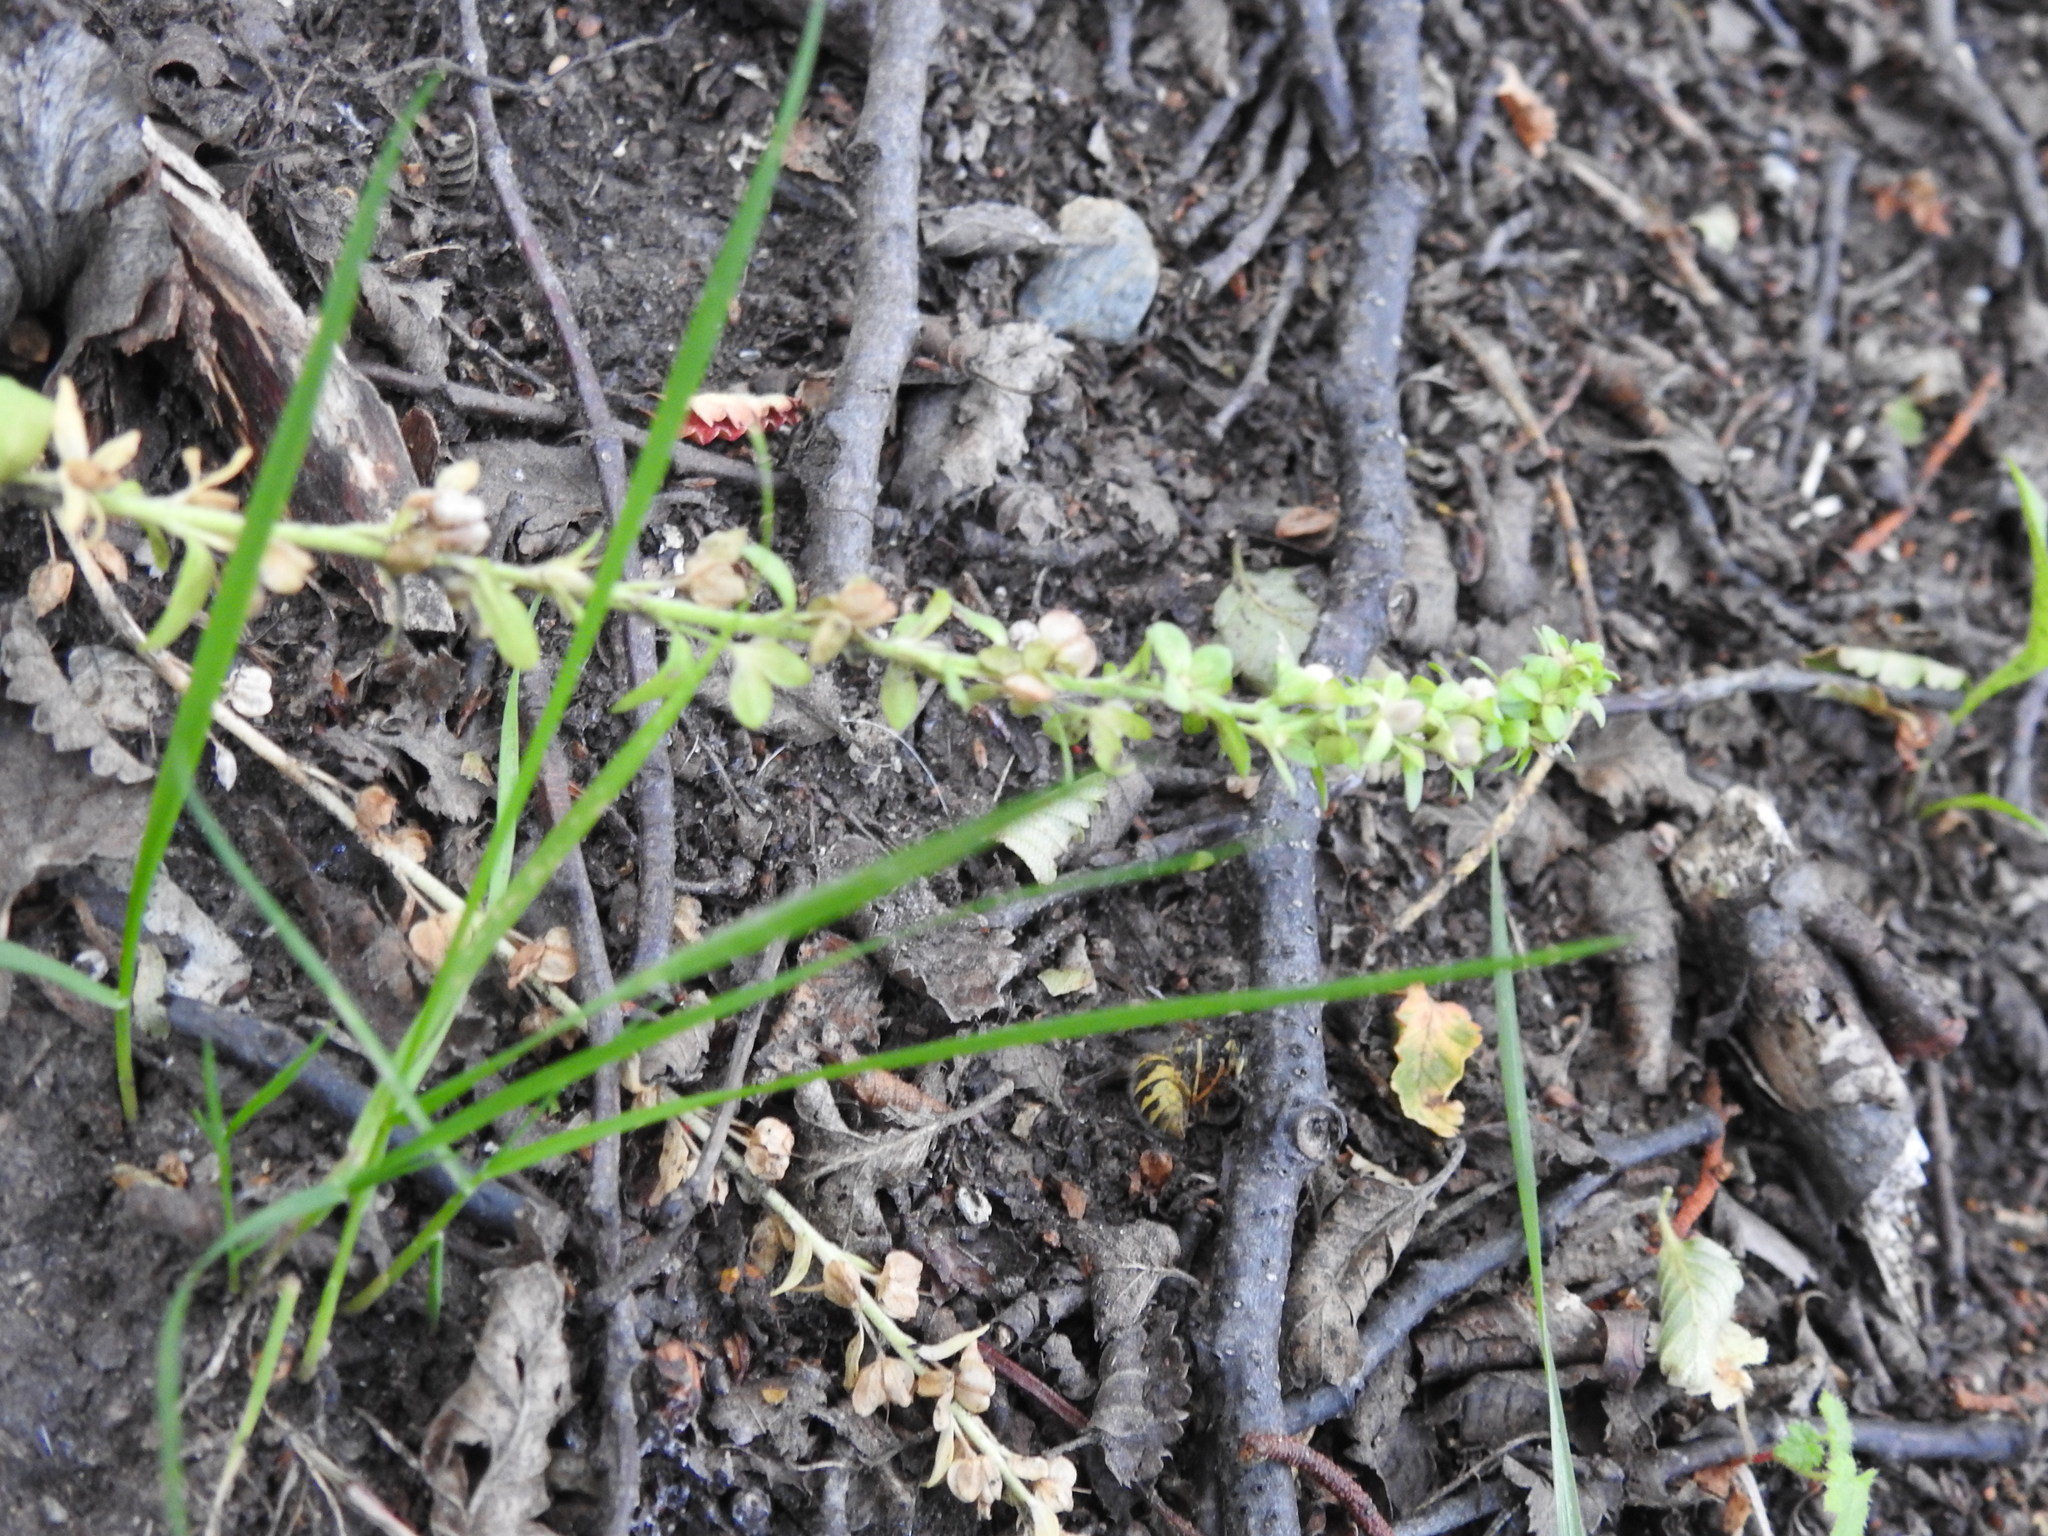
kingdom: Plantae
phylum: Tracheophyta
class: Magnoliopsida
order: Lamiales
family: Plantaginaceae
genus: Veronica
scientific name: Veronica serpyllifolia
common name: Thyme-leaved speedwell
